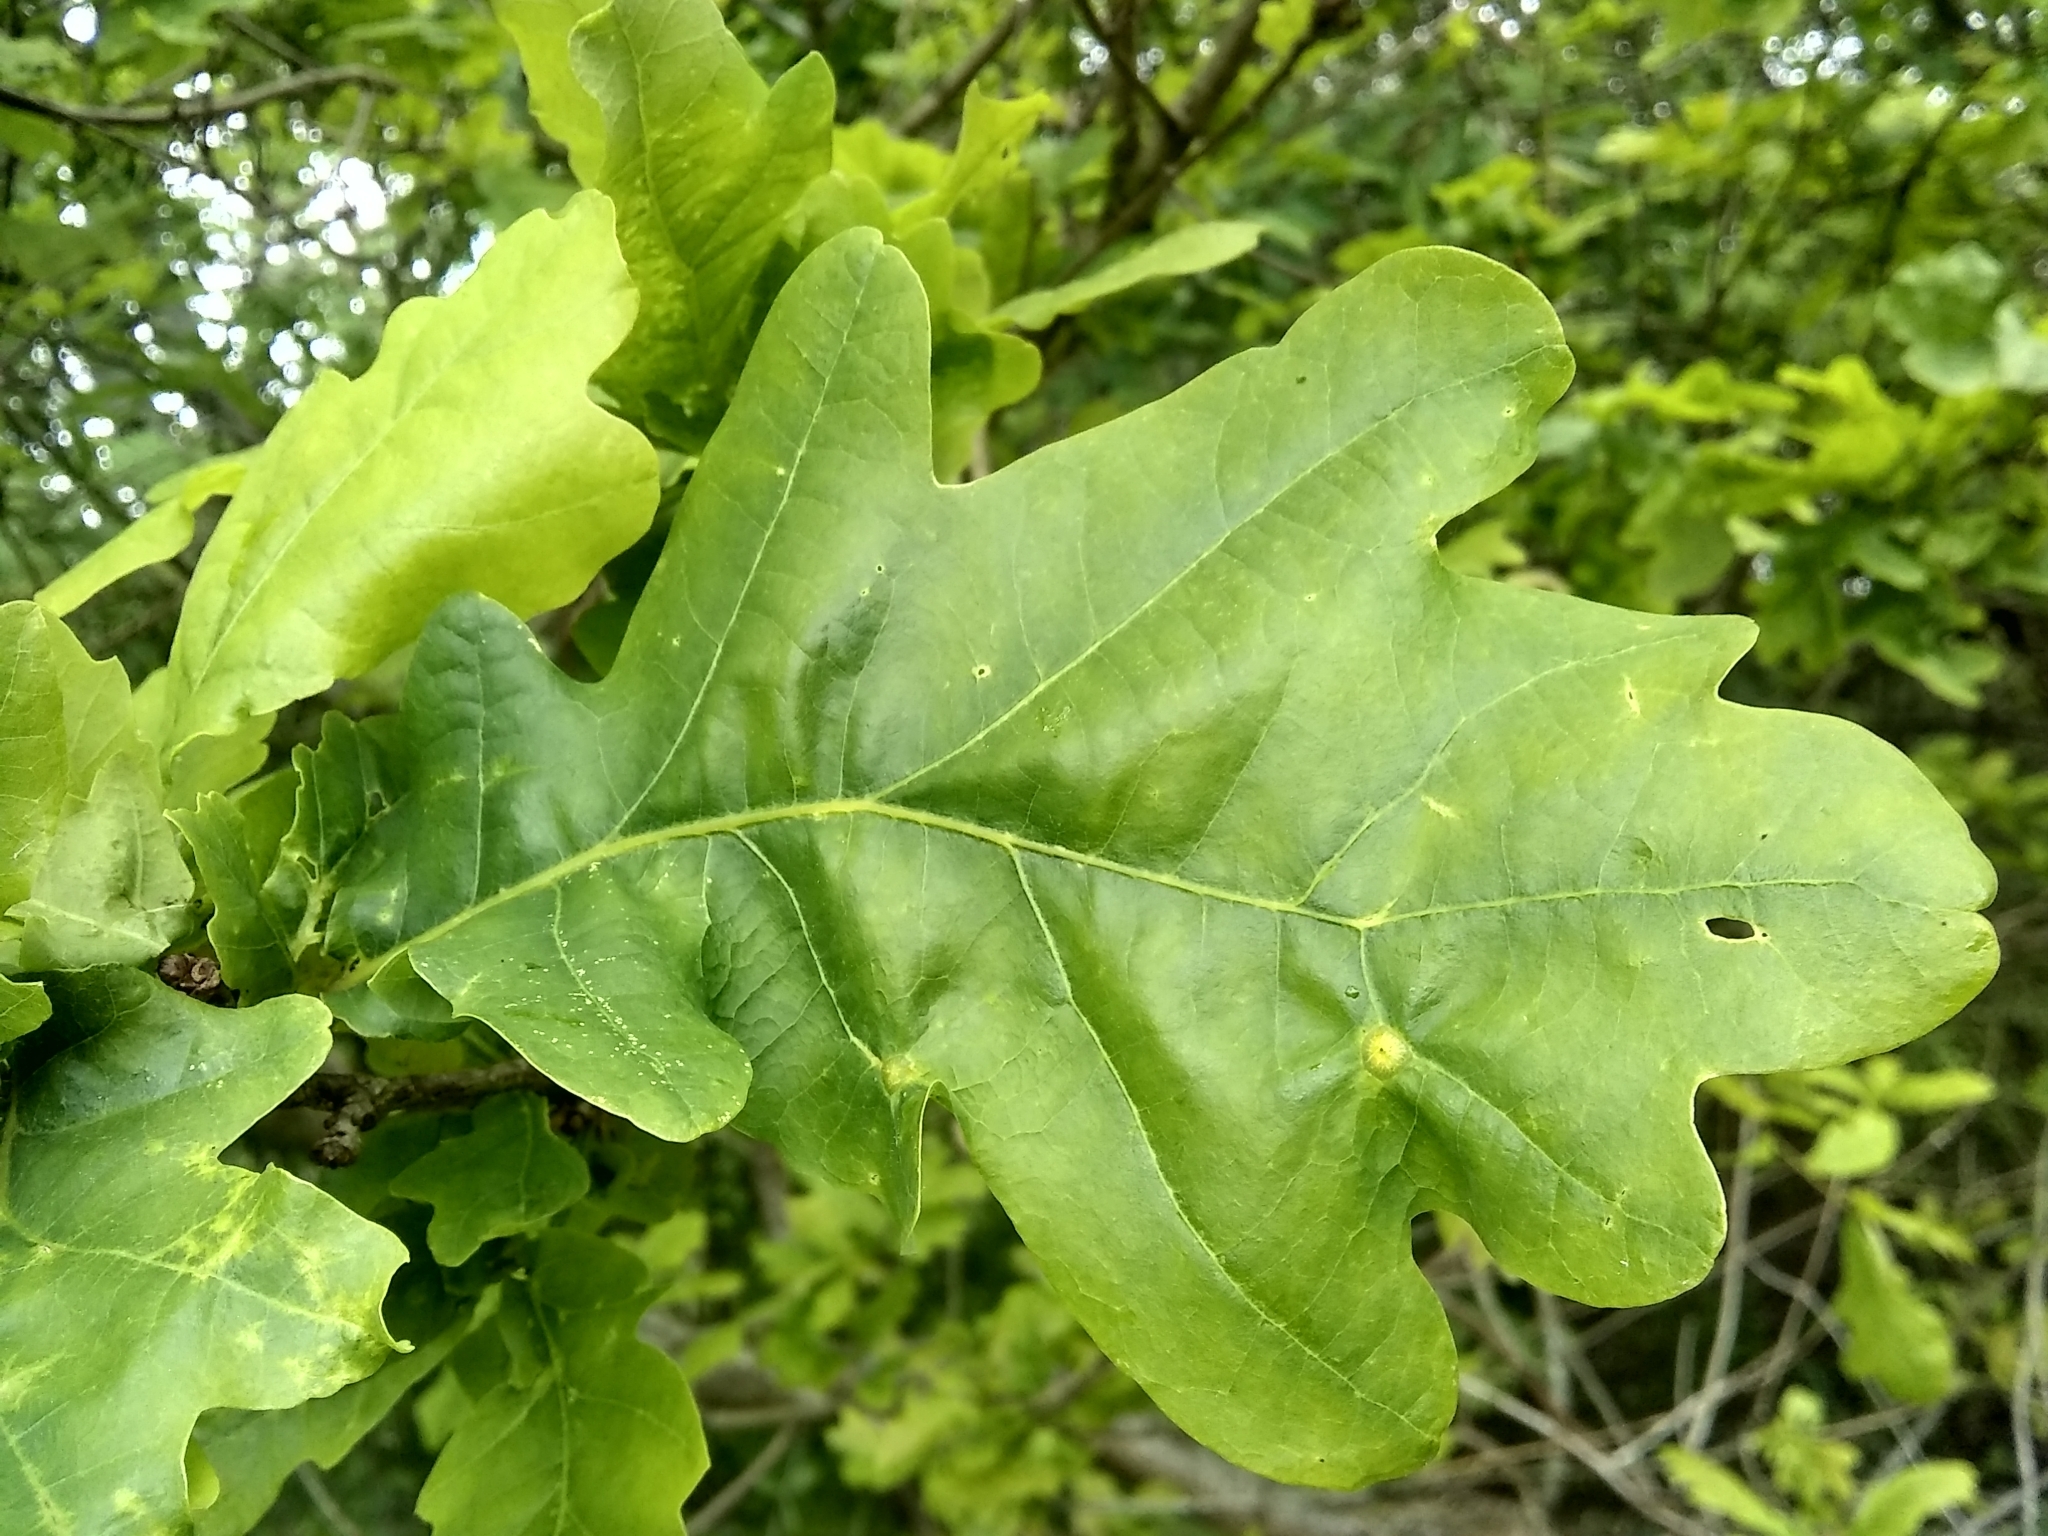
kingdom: Animalia
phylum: Arthropoda
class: Insecta
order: Hymenoptera
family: Cynipidae
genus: Neuroterus
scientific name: Neuroterus numismalis
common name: Silk-button spangle gall
